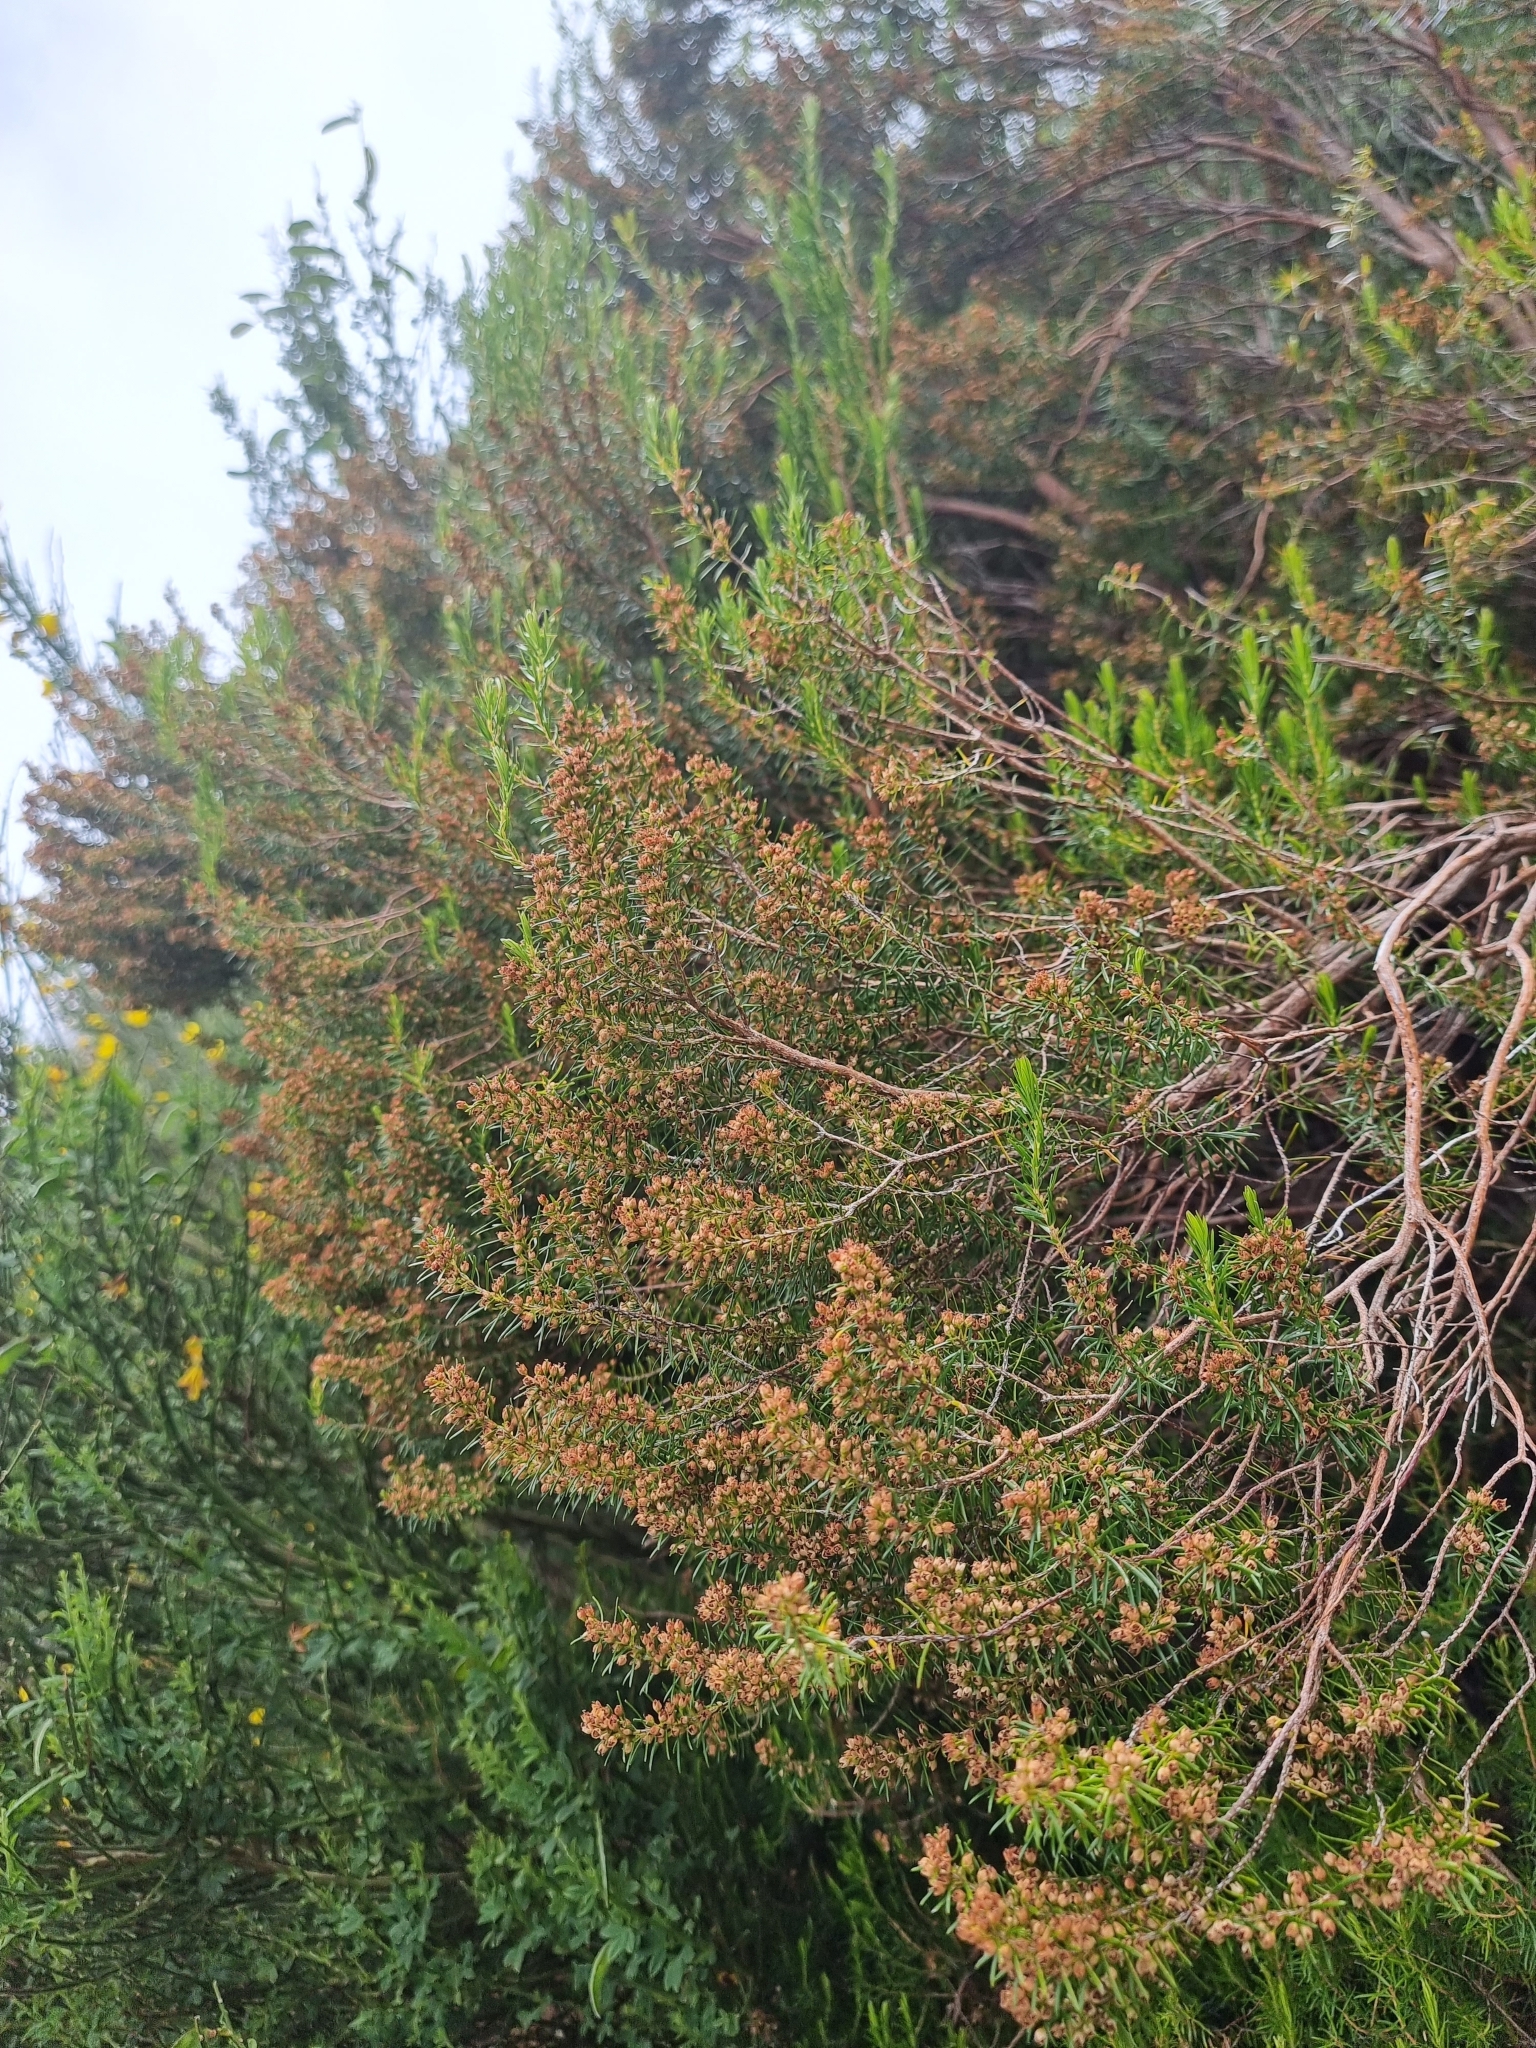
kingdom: Plantae
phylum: Tracheophyta
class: Magnoliopsida
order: Ericales
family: Ericaceae
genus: Erica
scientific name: Erica platycodon
